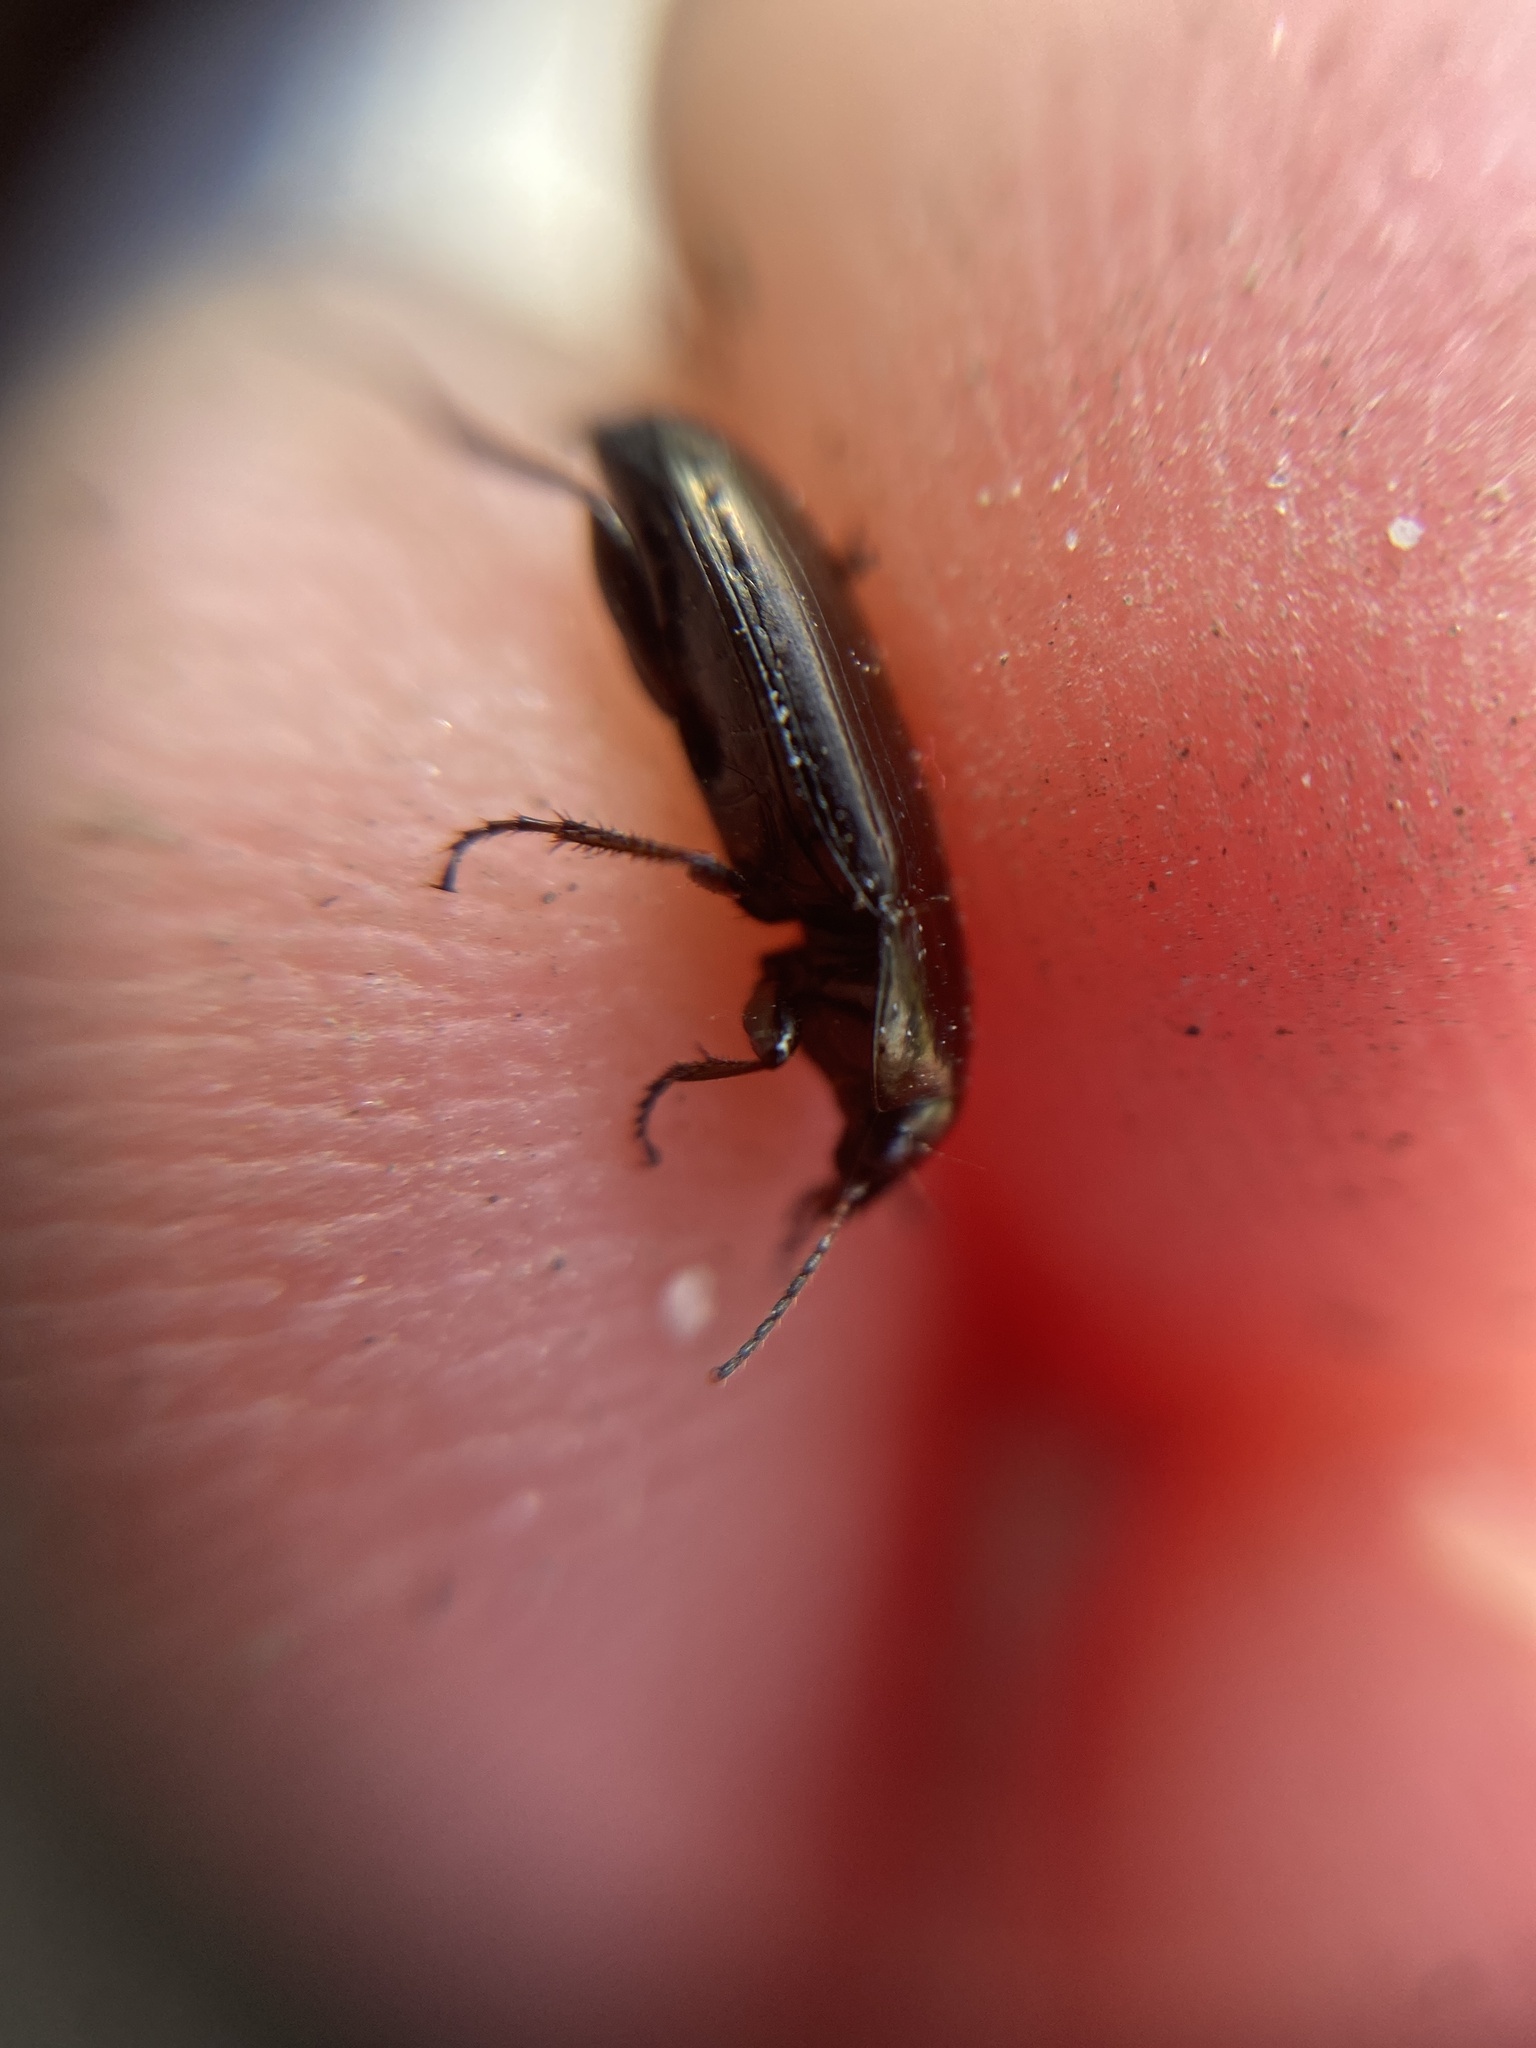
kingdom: Animalia
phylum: Arthropoda
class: Insecta
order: Coleoptera
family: Carabidae
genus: Amara
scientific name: Amara aenea
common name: Common sun beetle
